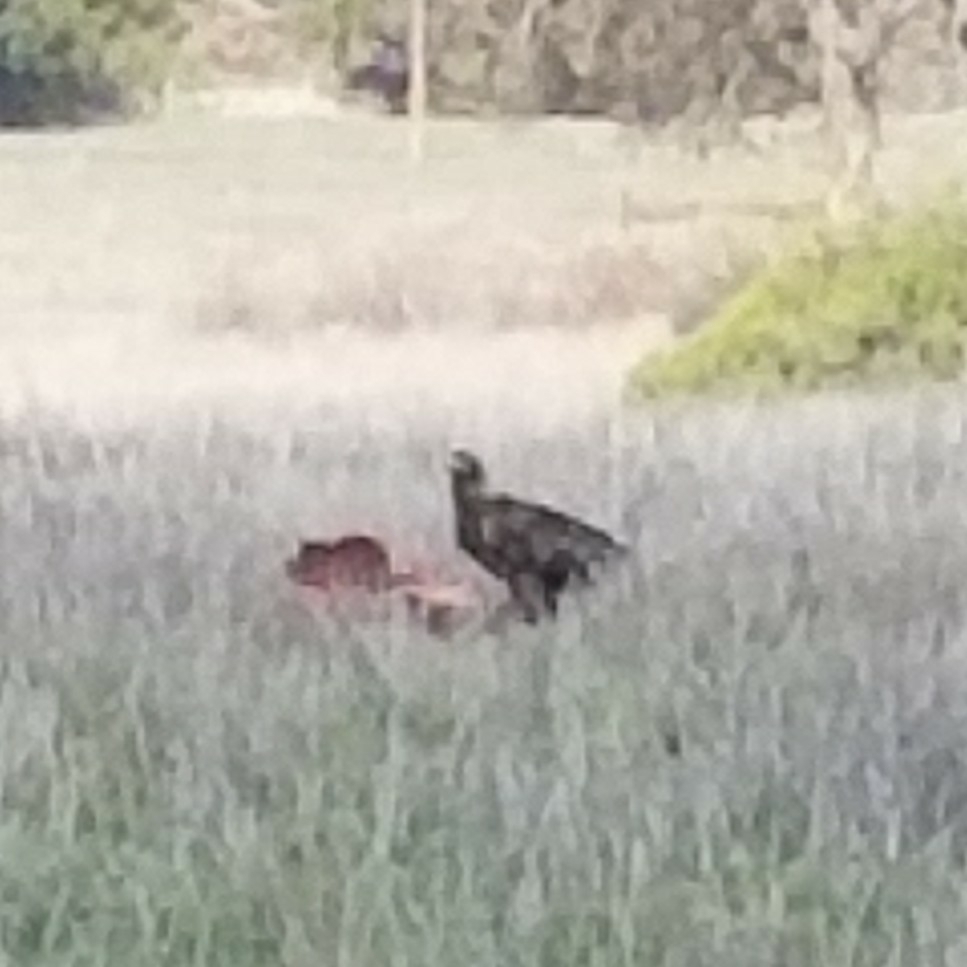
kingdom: Animalia
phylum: Chordata
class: Aves
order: Accipitriformes
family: Accipitridae
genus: Aquila
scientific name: Aquila chrysaetos
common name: Golden eagle
